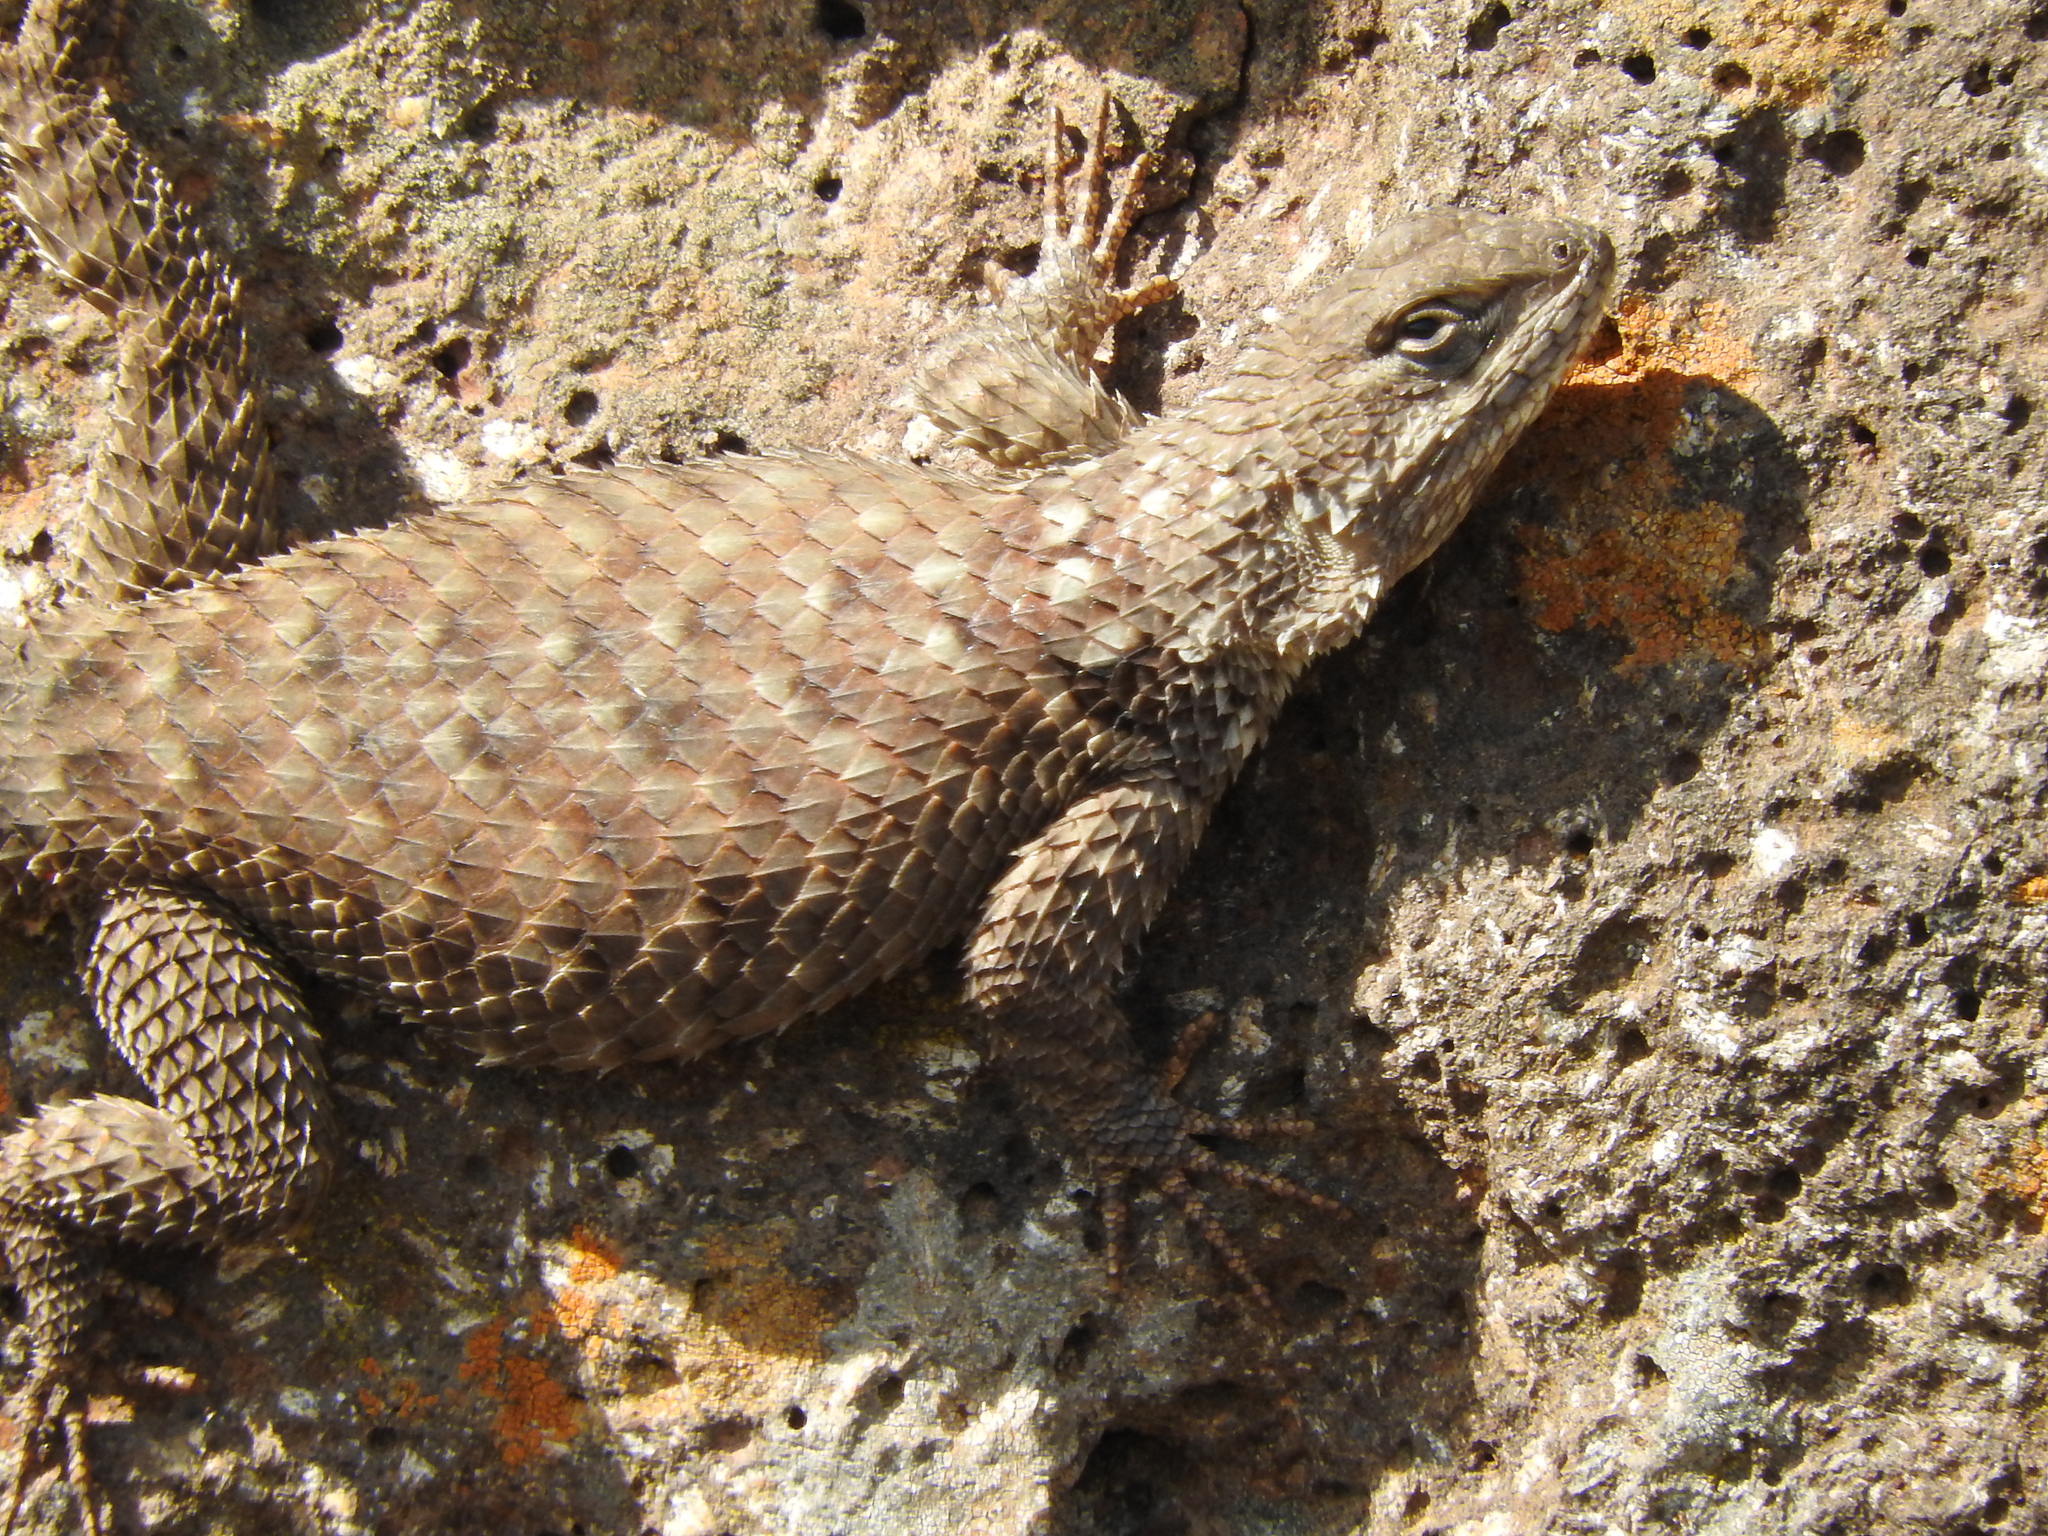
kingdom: Animalia
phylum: Chordata
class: Squamata
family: Phrynosomatidae
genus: Sceloporus
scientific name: Sceloporus torquatus
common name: Central plateau torquate lizard [melanogaster]
